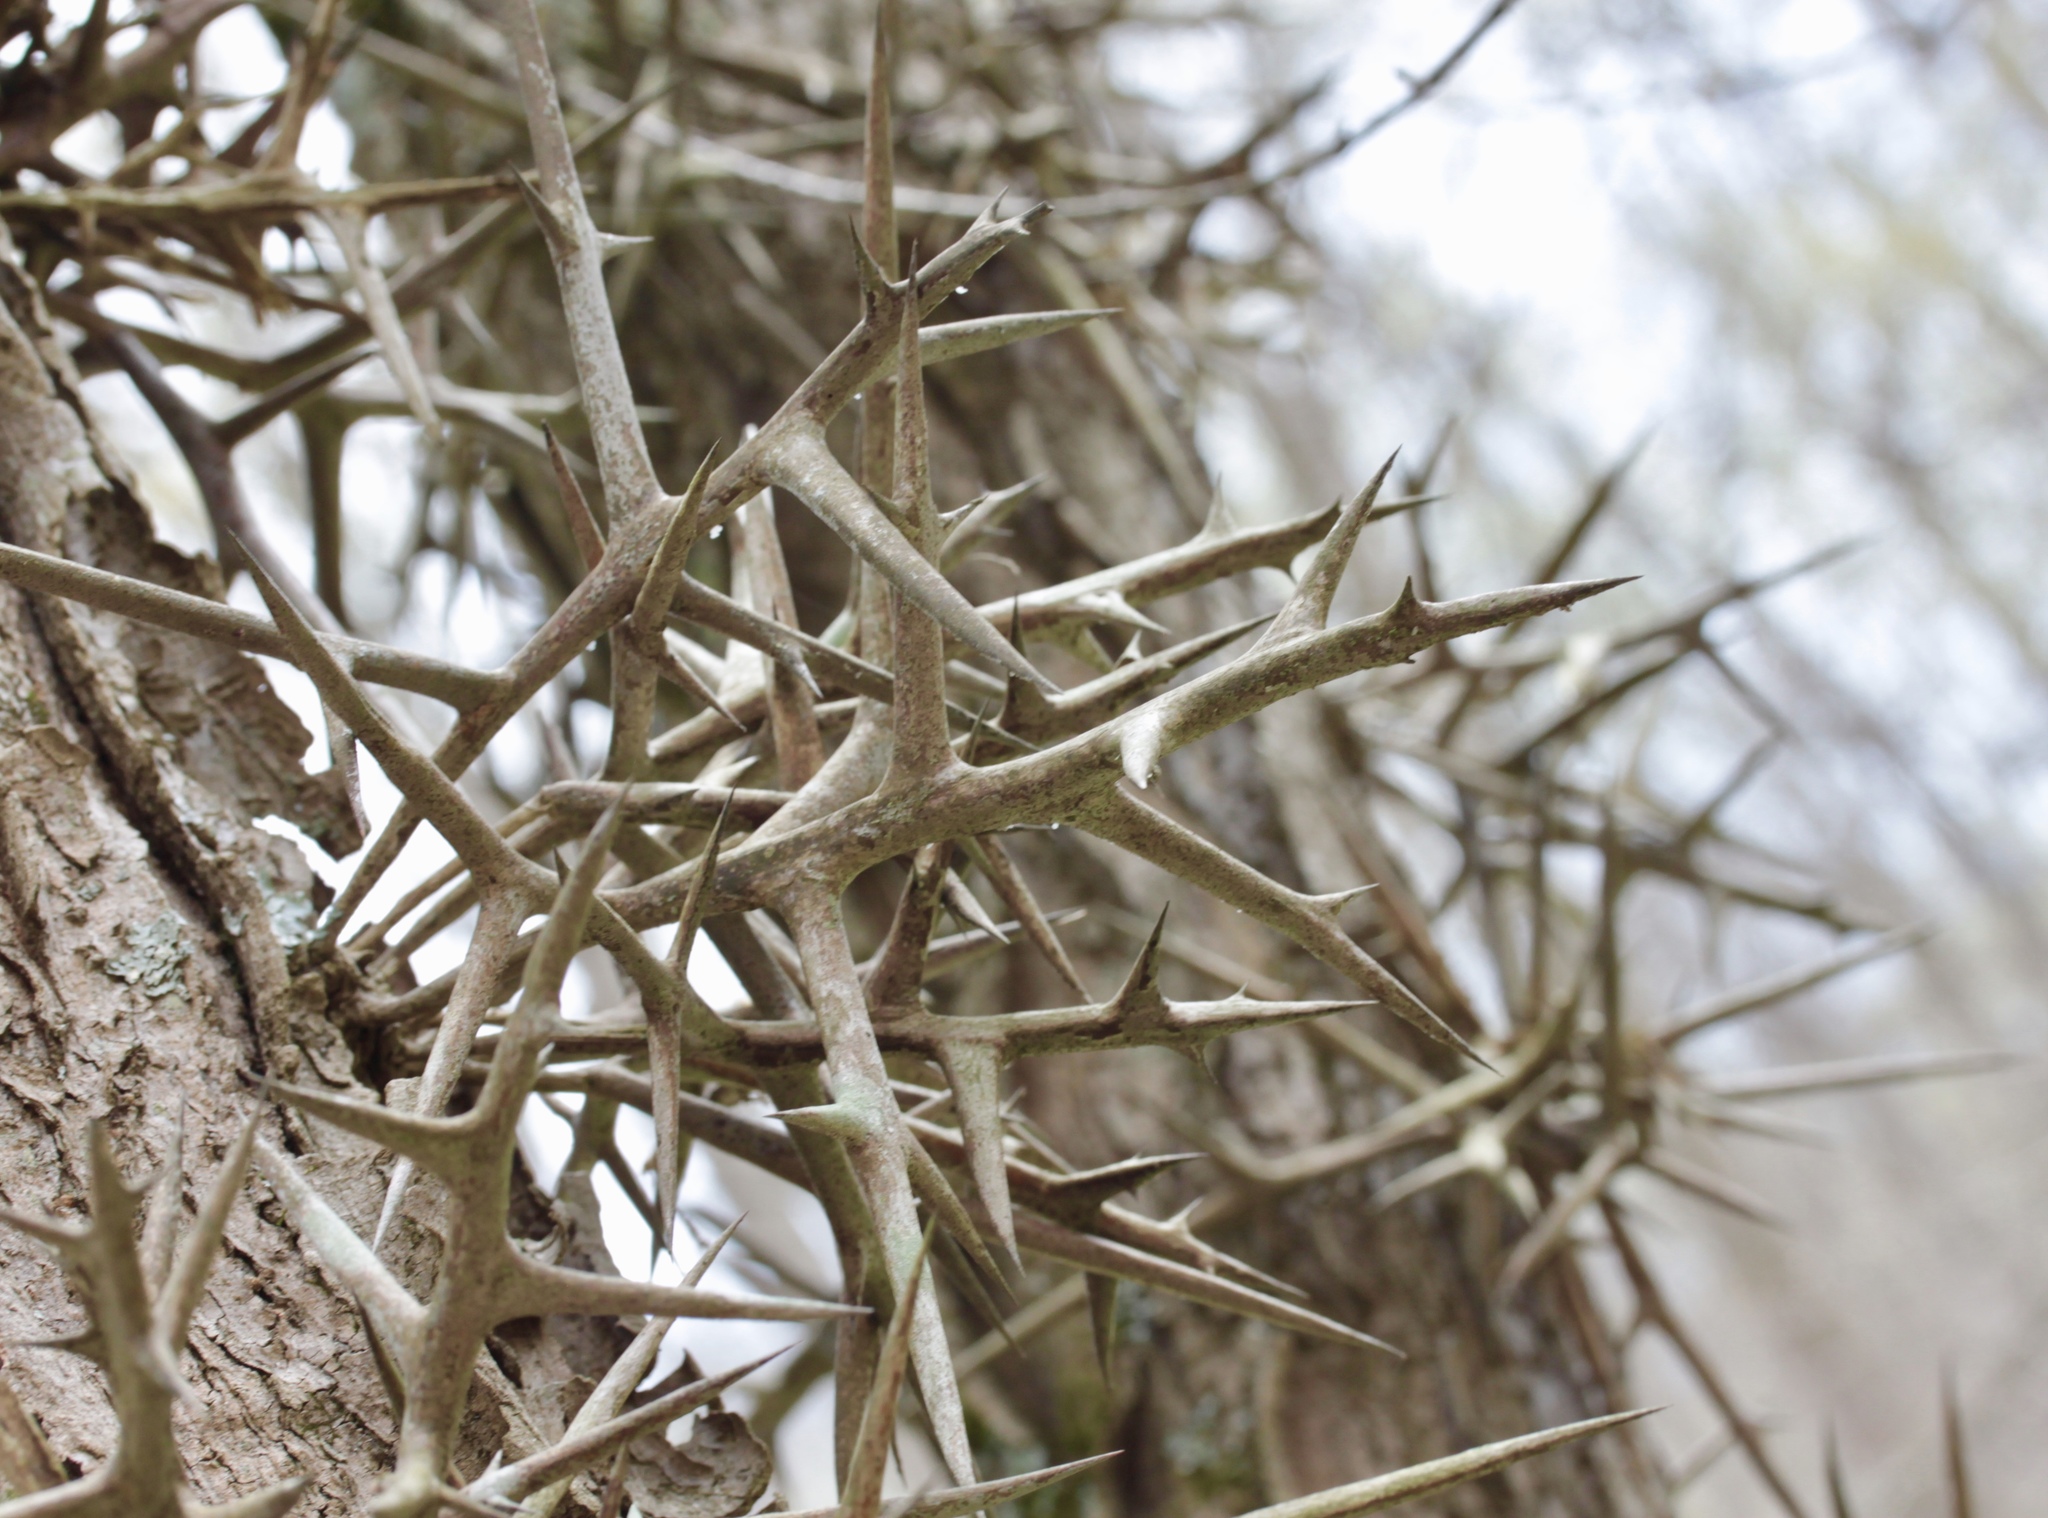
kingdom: Plantae
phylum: Tracheophyta
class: Magnoliopsida
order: Fabales
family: Fabaceae
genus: Gleditsia
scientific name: Gleditsia triacanthos
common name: Common honeylocust
